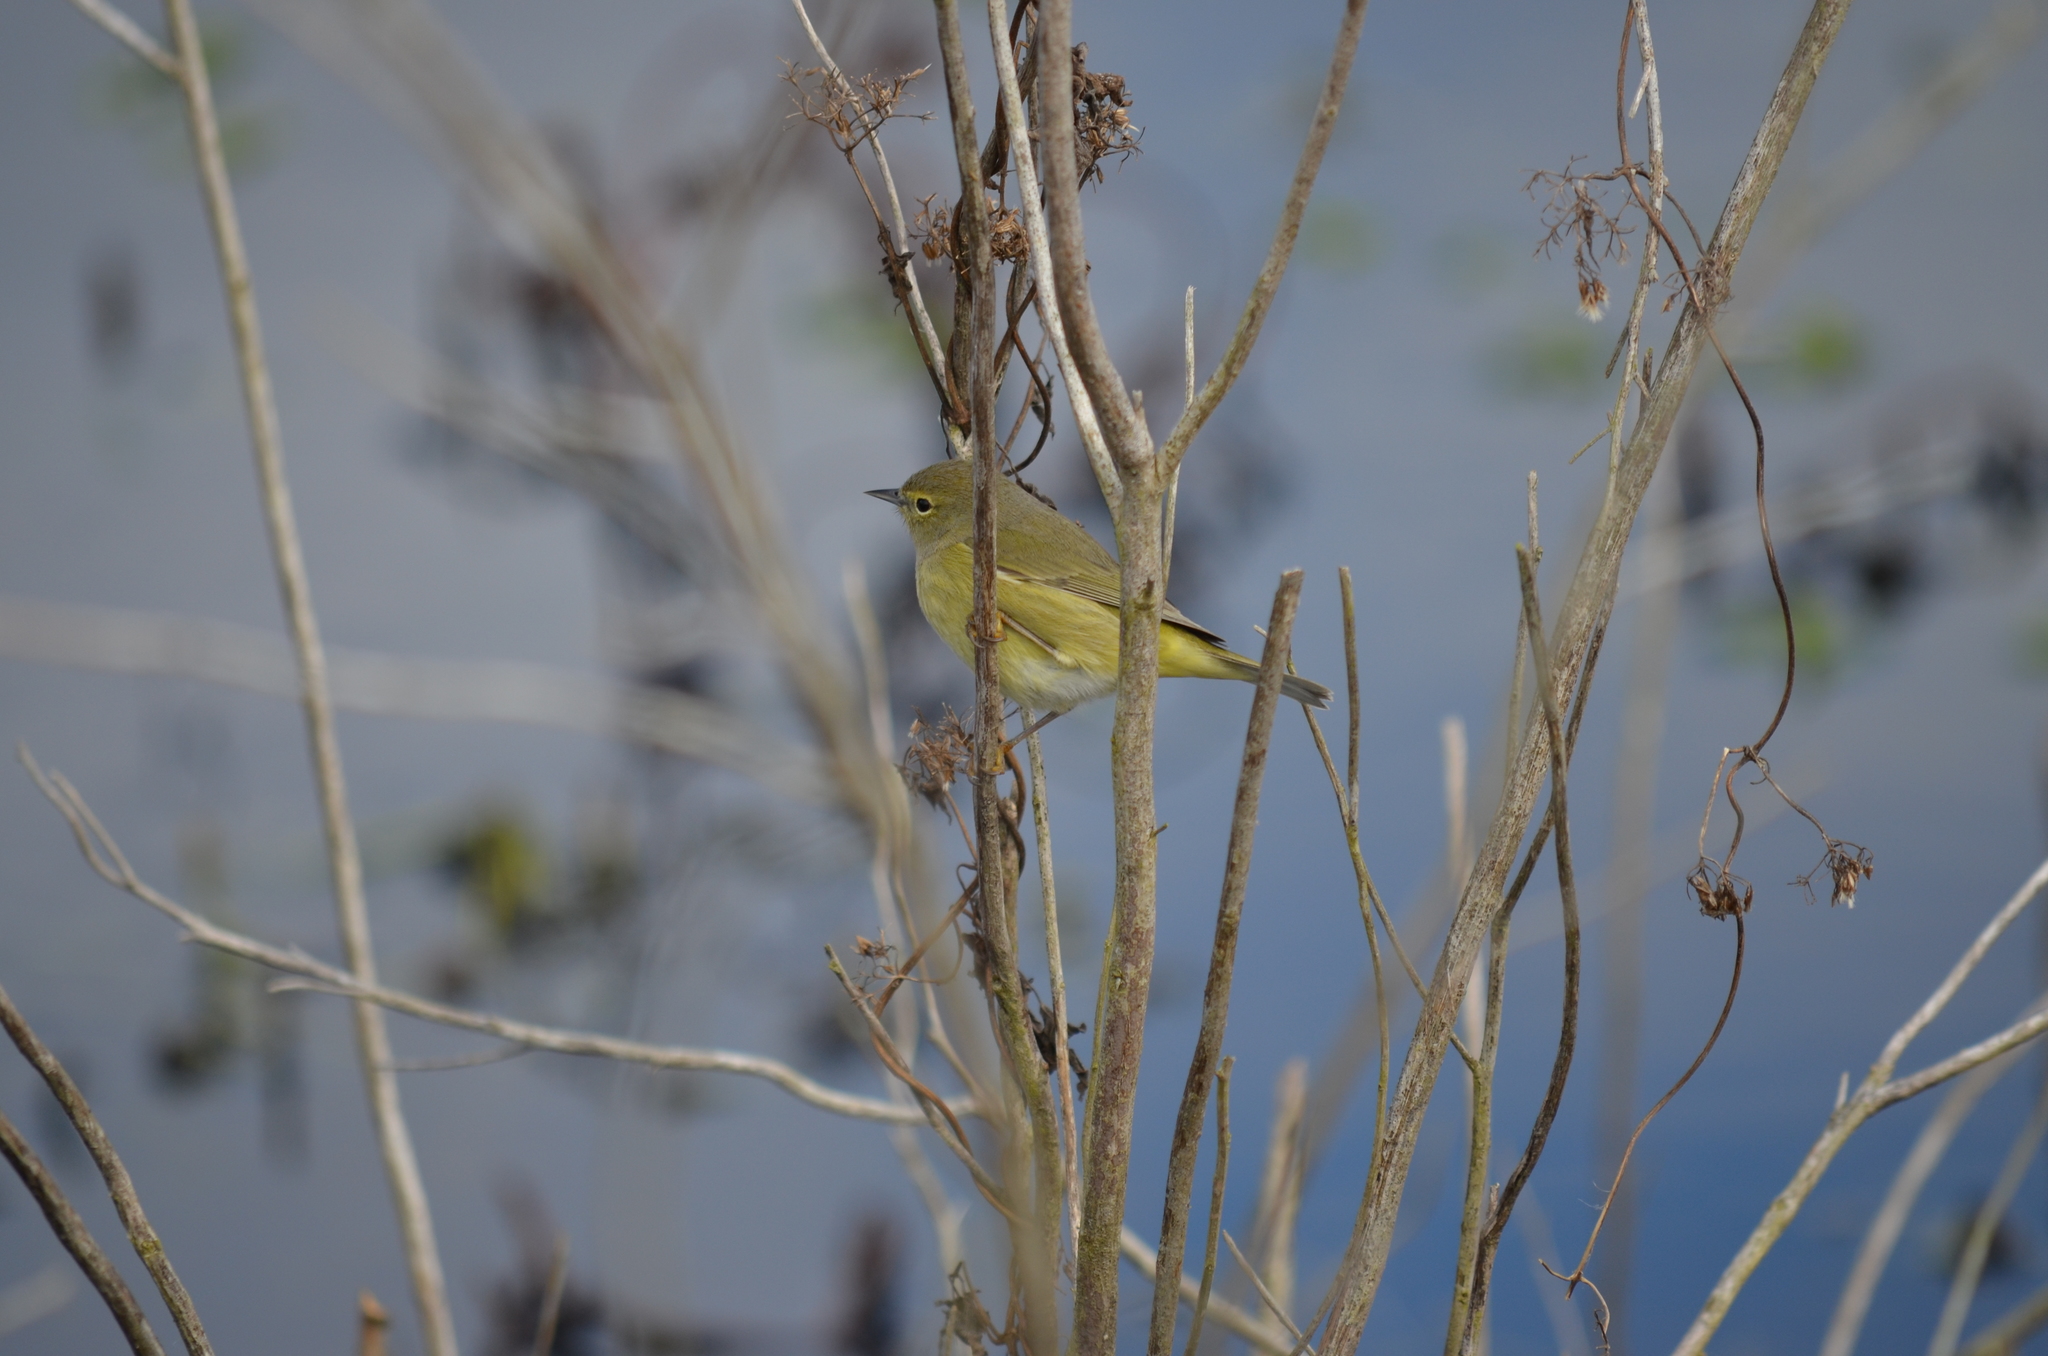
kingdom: Animalia
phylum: Chordata
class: Aves
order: Passeriformes
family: Parulidae
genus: Leiothlypis
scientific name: Leiothlypis celata
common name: Orange-crowned warbler
